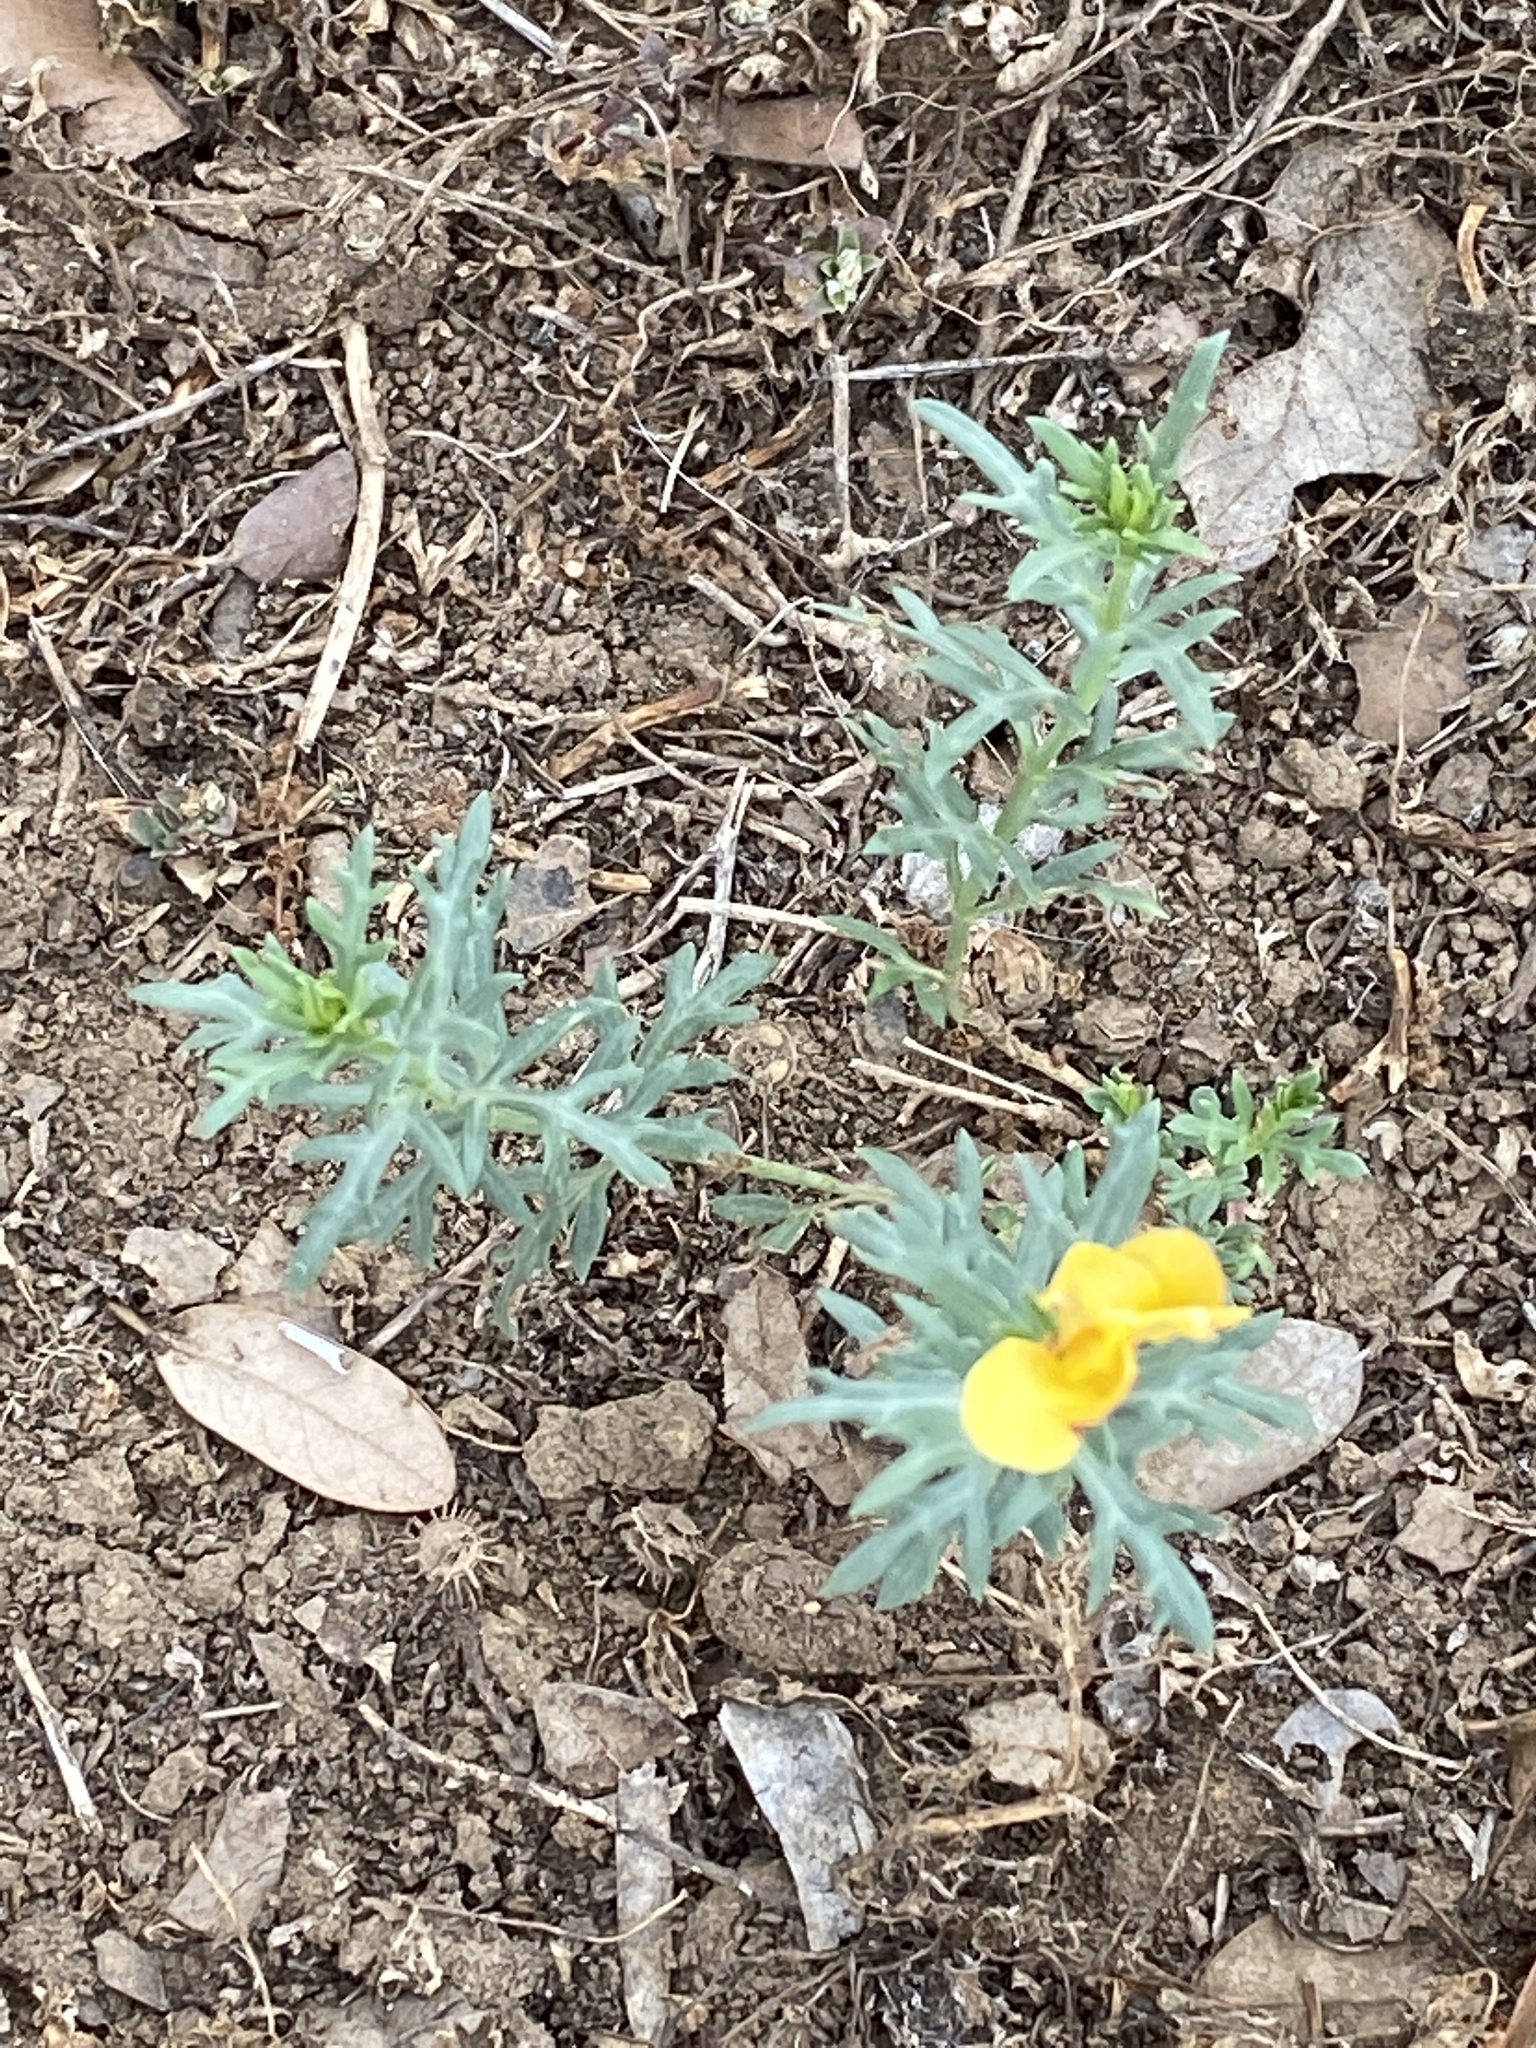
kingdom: Plantae
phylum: Tracheophyta
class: Magnoliopsida
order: Lamiales
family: Oleaceae
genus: Menodora
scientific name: Menodora heterophylla
